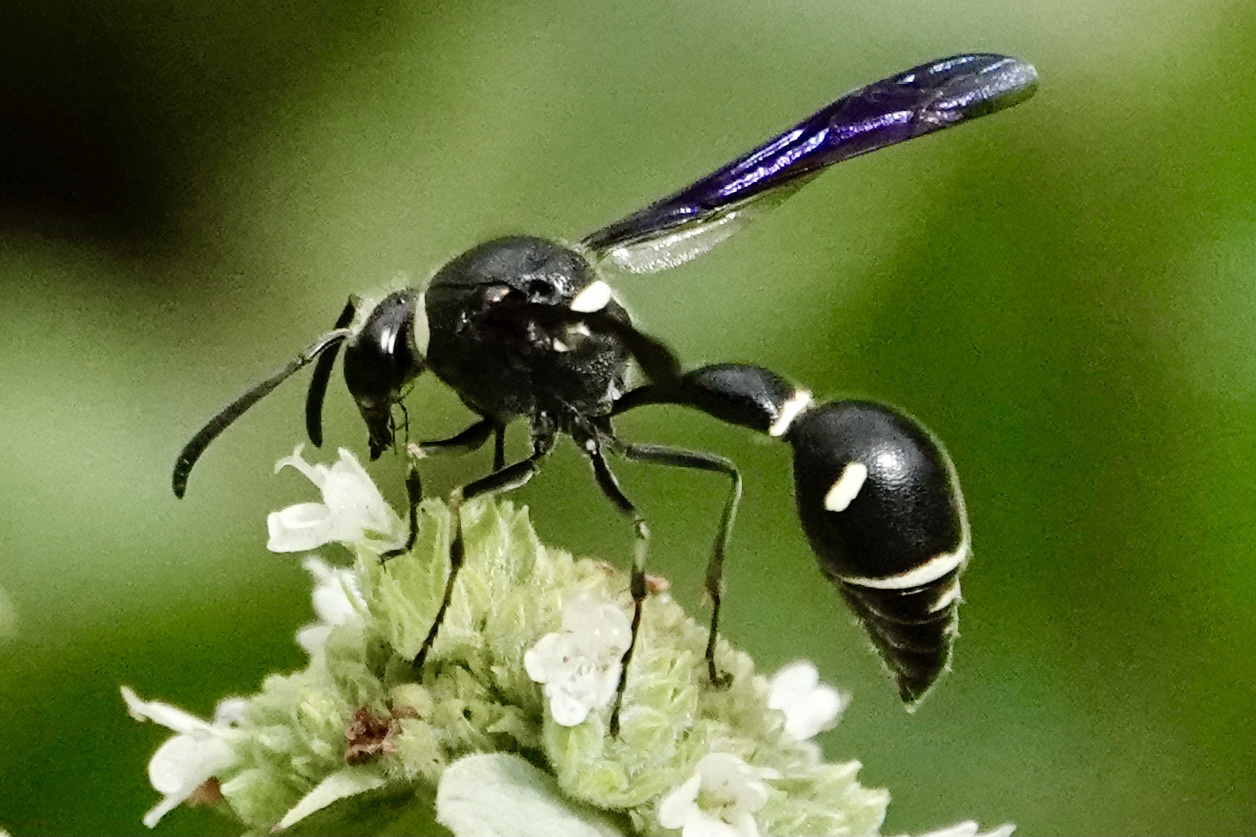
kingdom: Animalia
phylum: Arthropoda
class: Insecta
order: Hymenoptera
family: Vespidae
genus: Eumenes
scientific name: Eumenes fraternus
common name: Fraternal potter wasp
